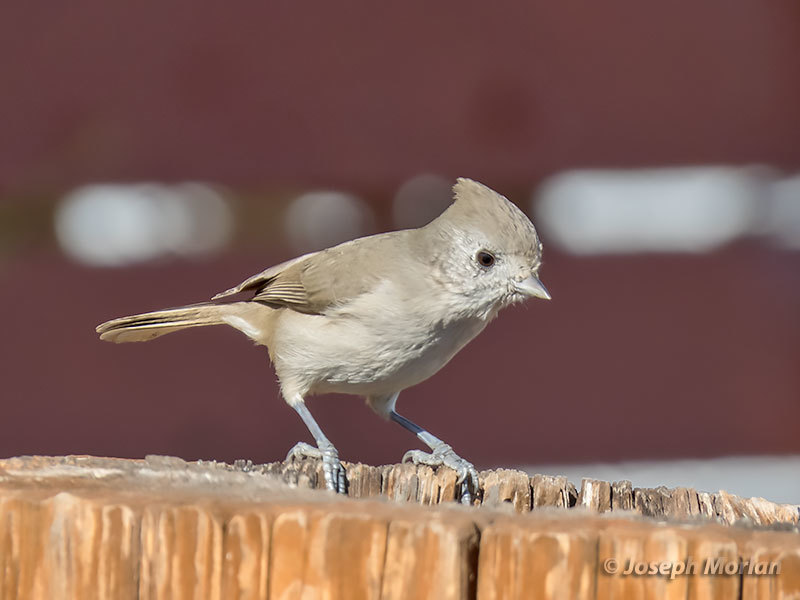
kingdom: Animalia
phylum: Chordata
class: Aves
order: Passeriformes
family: Paridae
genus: Baeolophus
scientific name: Baeolophus inornatus
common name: Oak titmouse
